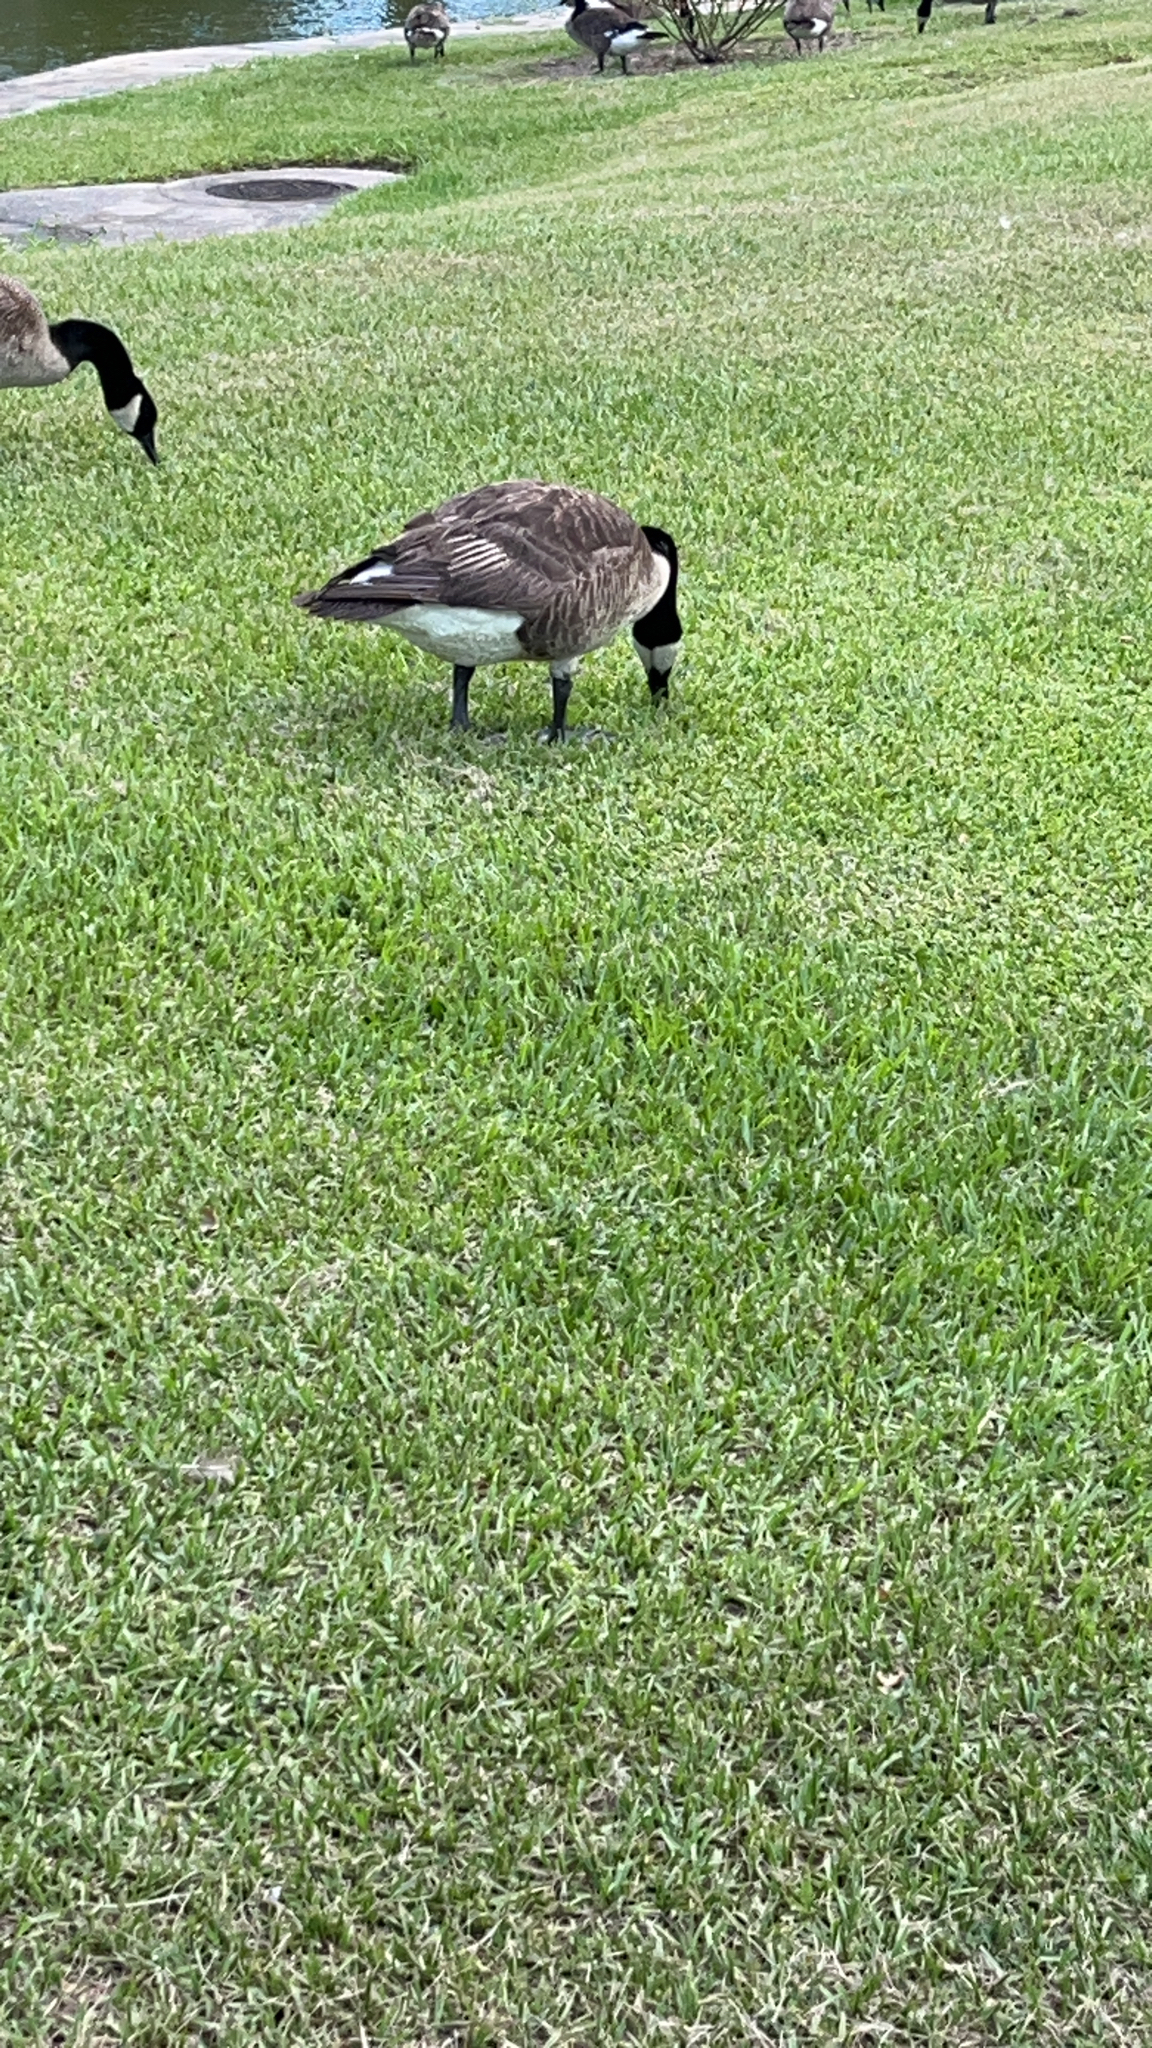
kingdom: Animalia
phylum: Chordata
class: Aves
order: Anseriformes
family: Anatidae
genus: Branta
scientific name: Branta canadensis
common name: Canada goose
